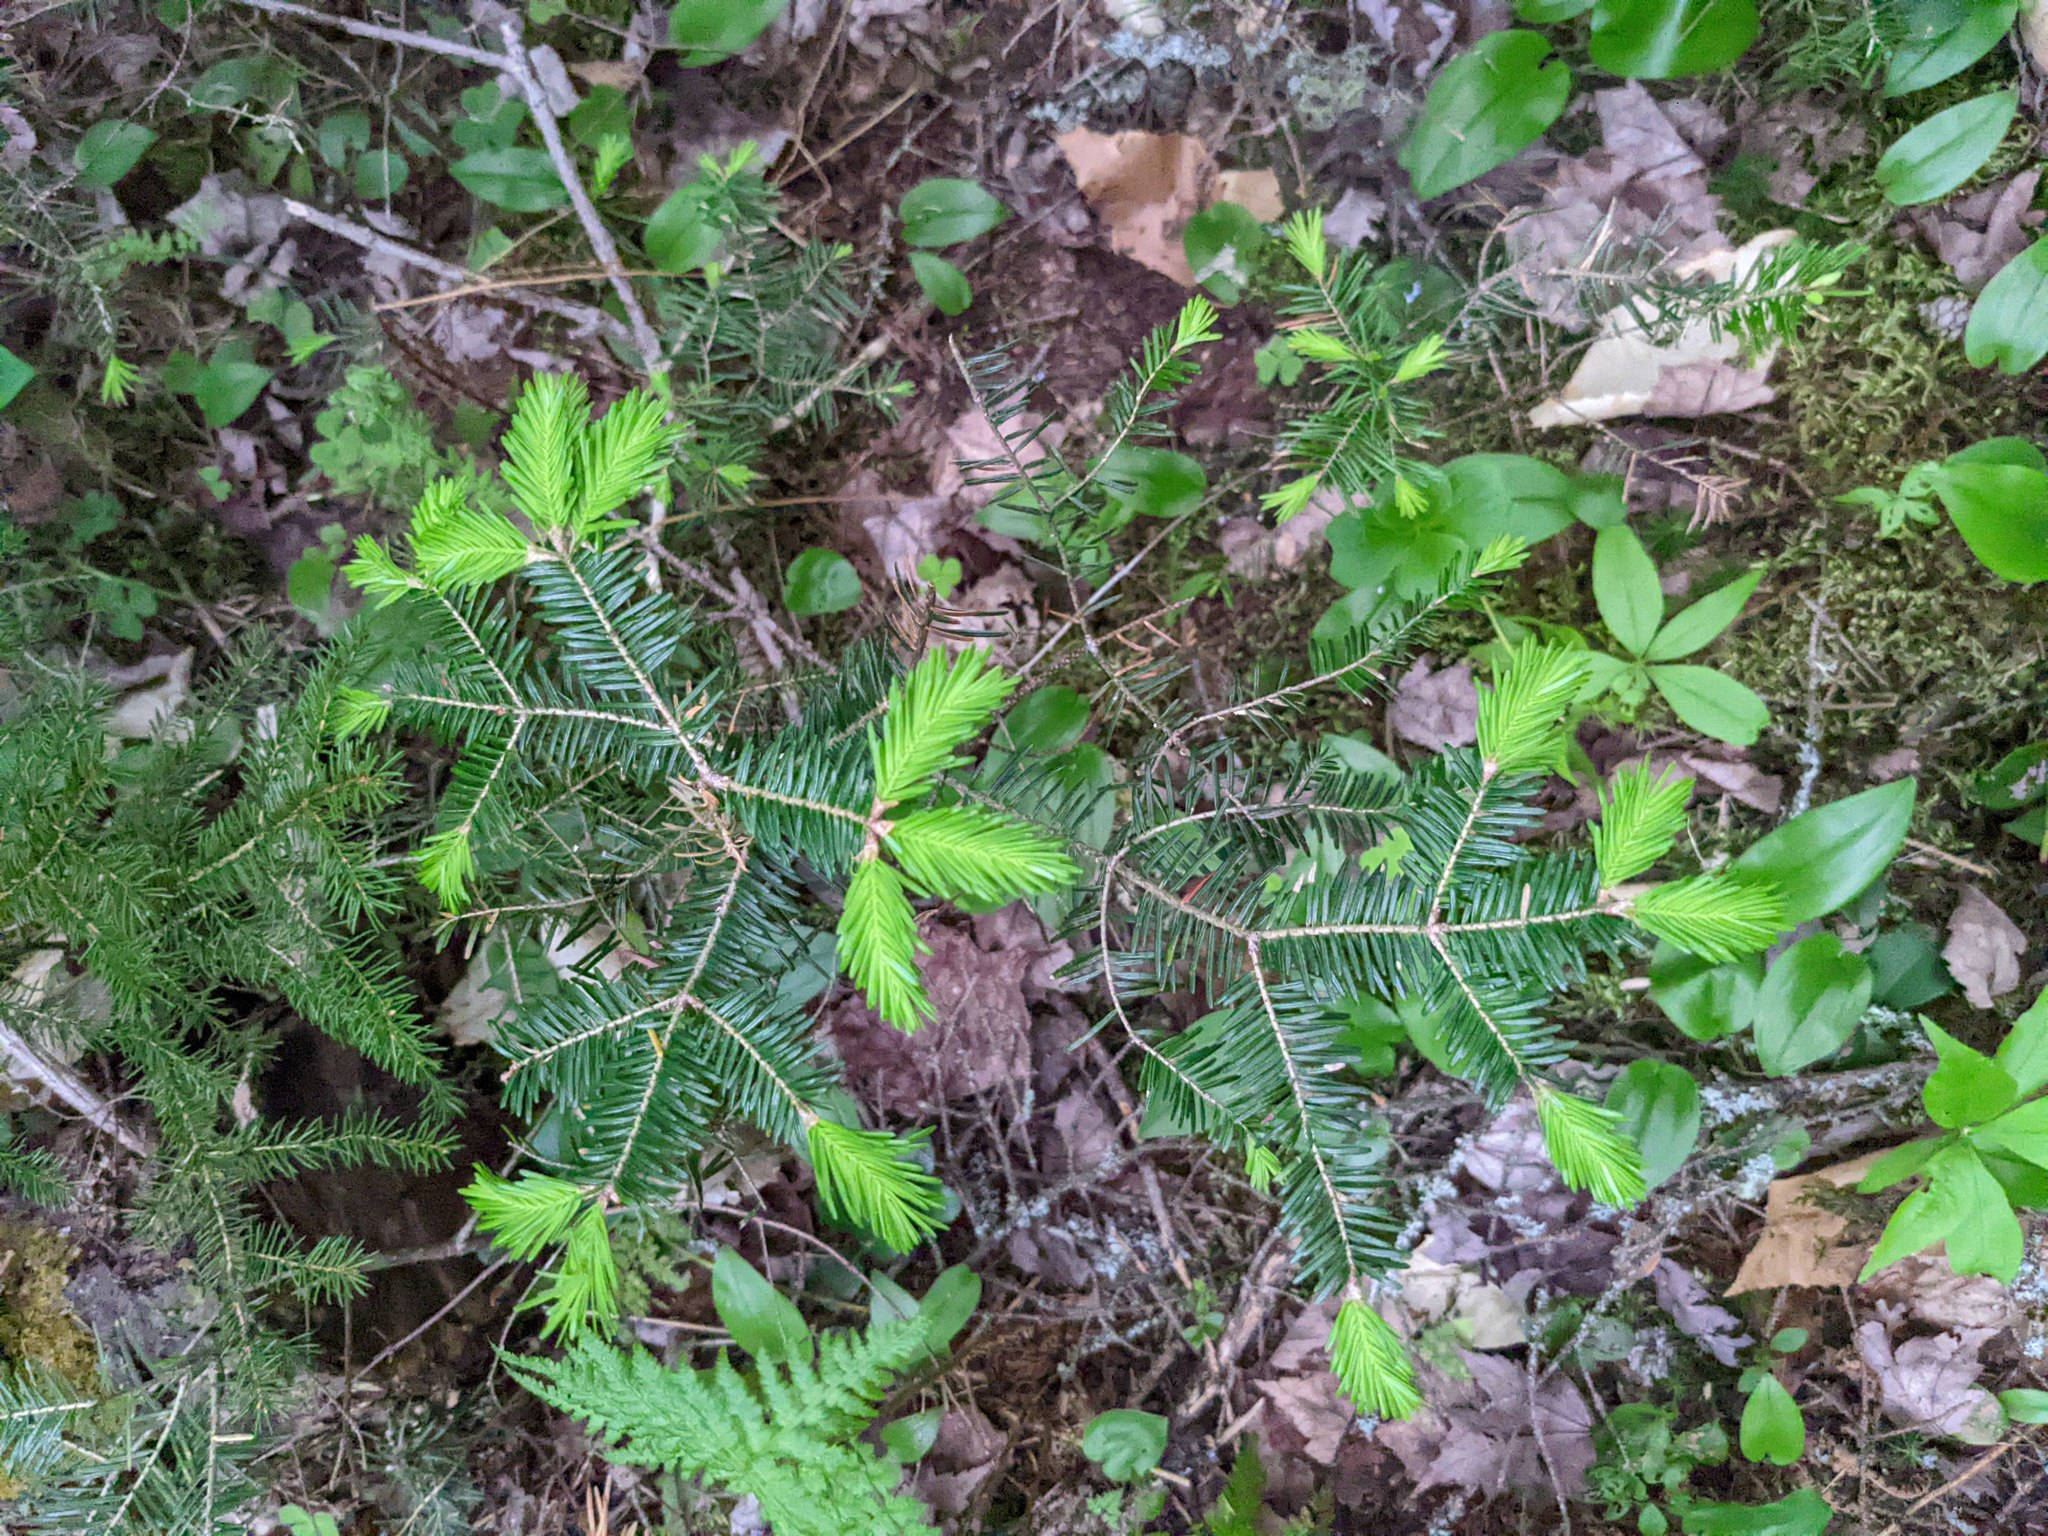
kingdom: Plantae
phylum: Tracheophyta
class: Pinopsida
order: Pinales
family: Pinaceae
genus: Abies
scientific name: Abies balsamea
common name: Balsam fir
